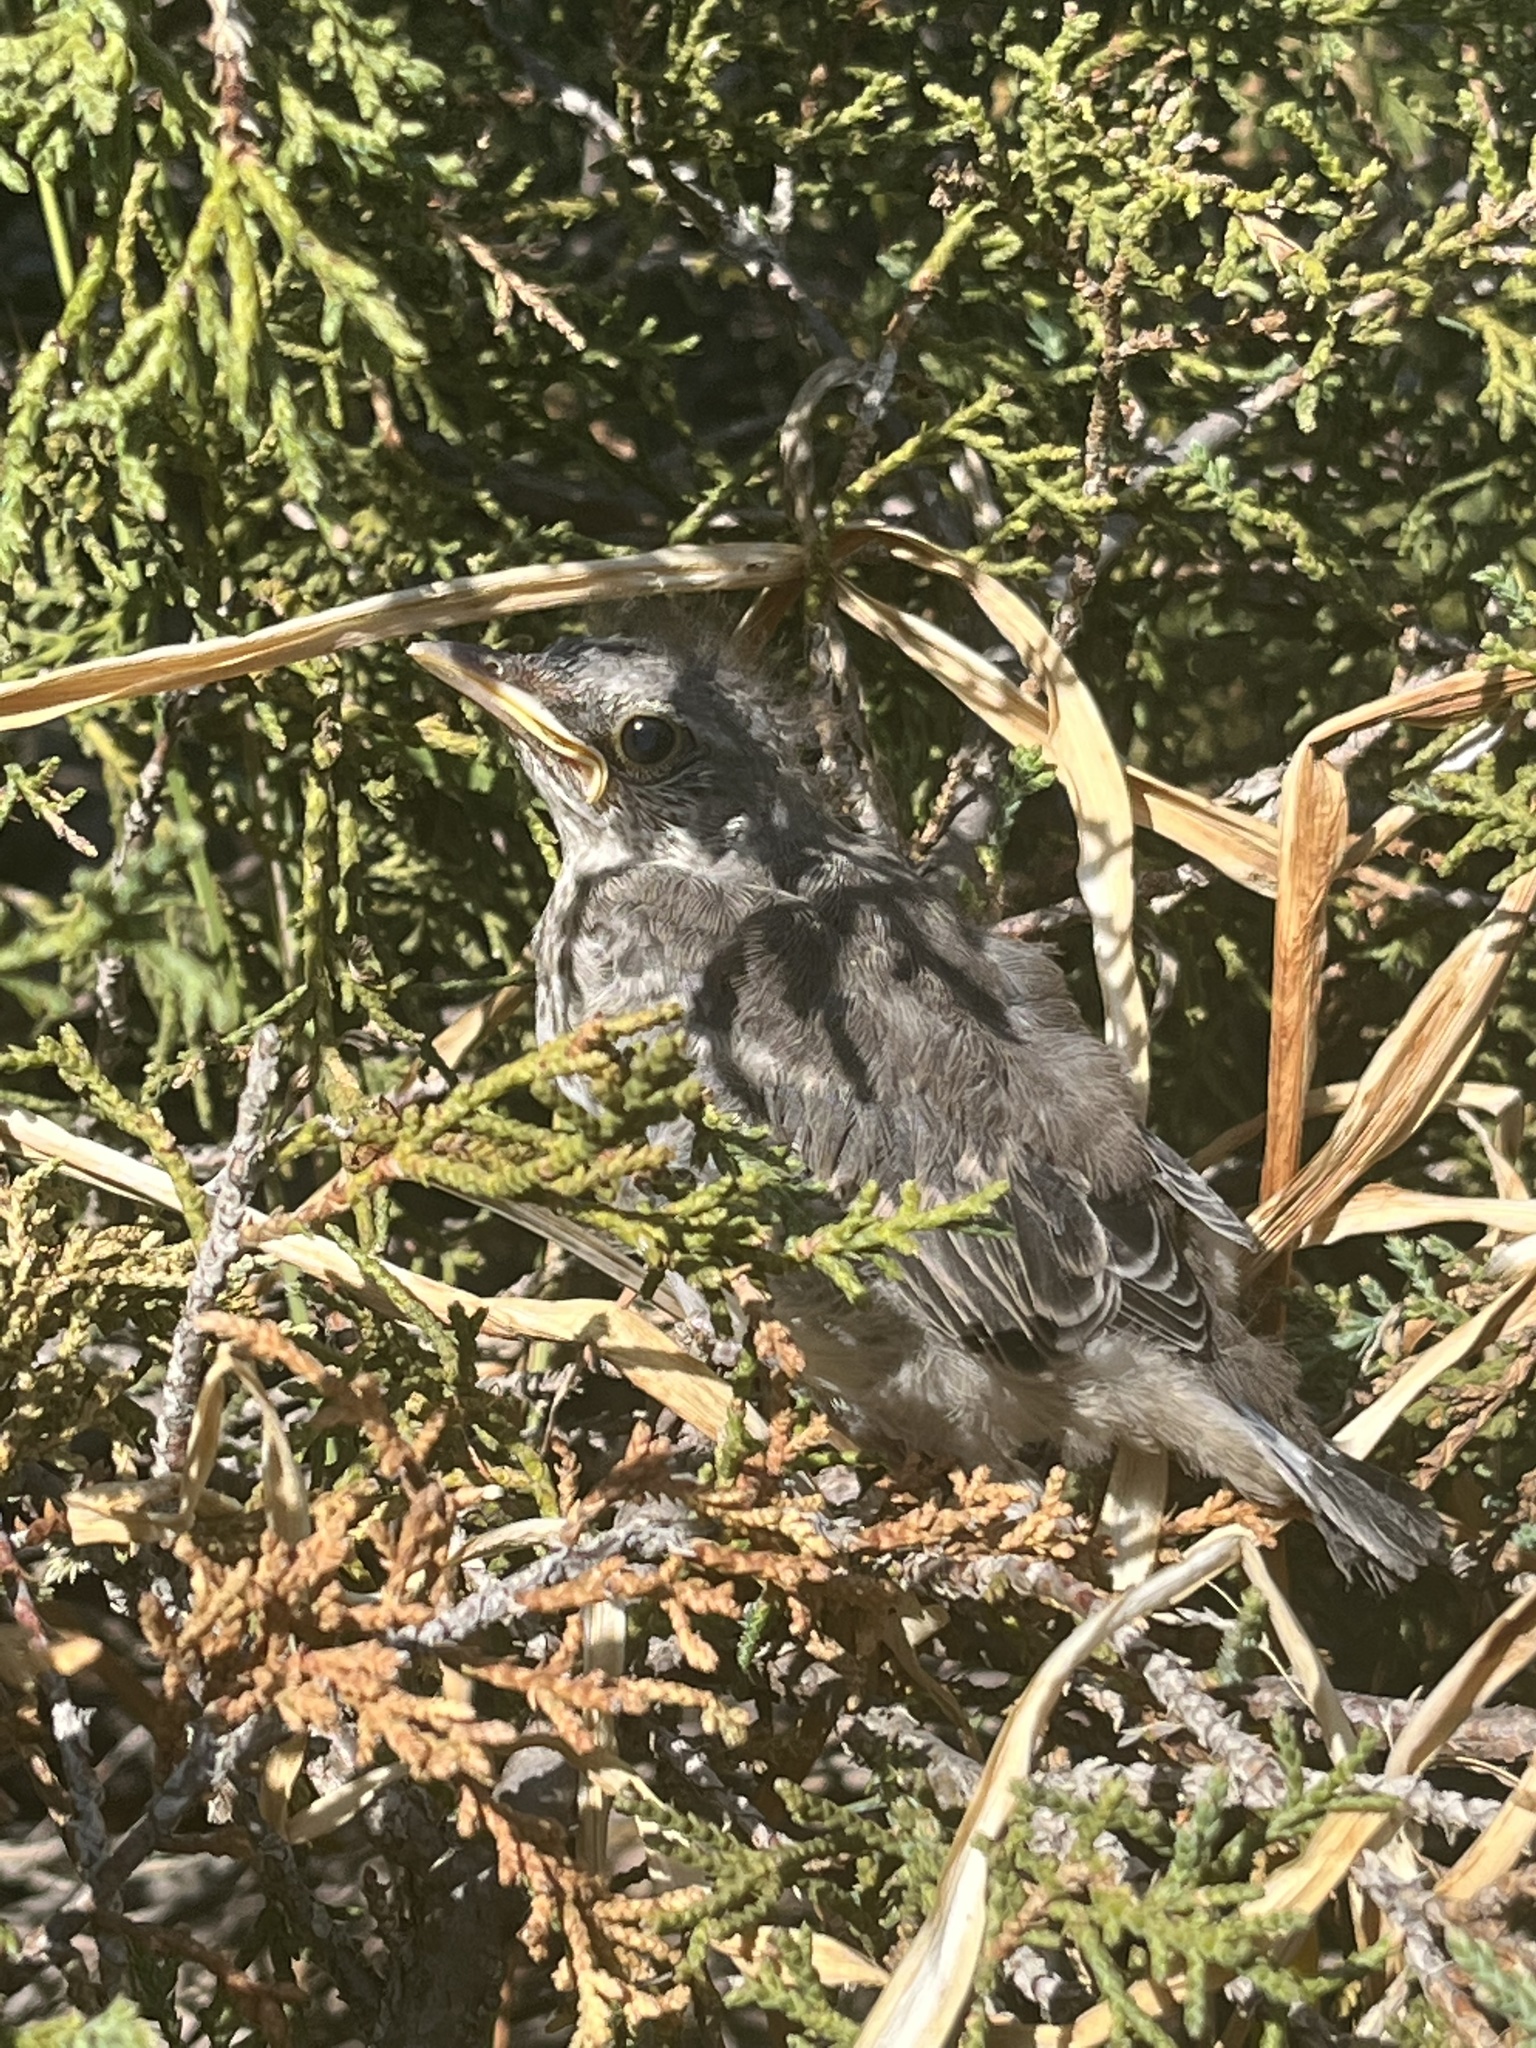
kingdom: Animalia
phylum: Chordata
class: Aves
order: Passeriformes
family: Mimidae
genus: Mimus
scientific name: Mimus polyglottos
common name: Northern mockingbird
